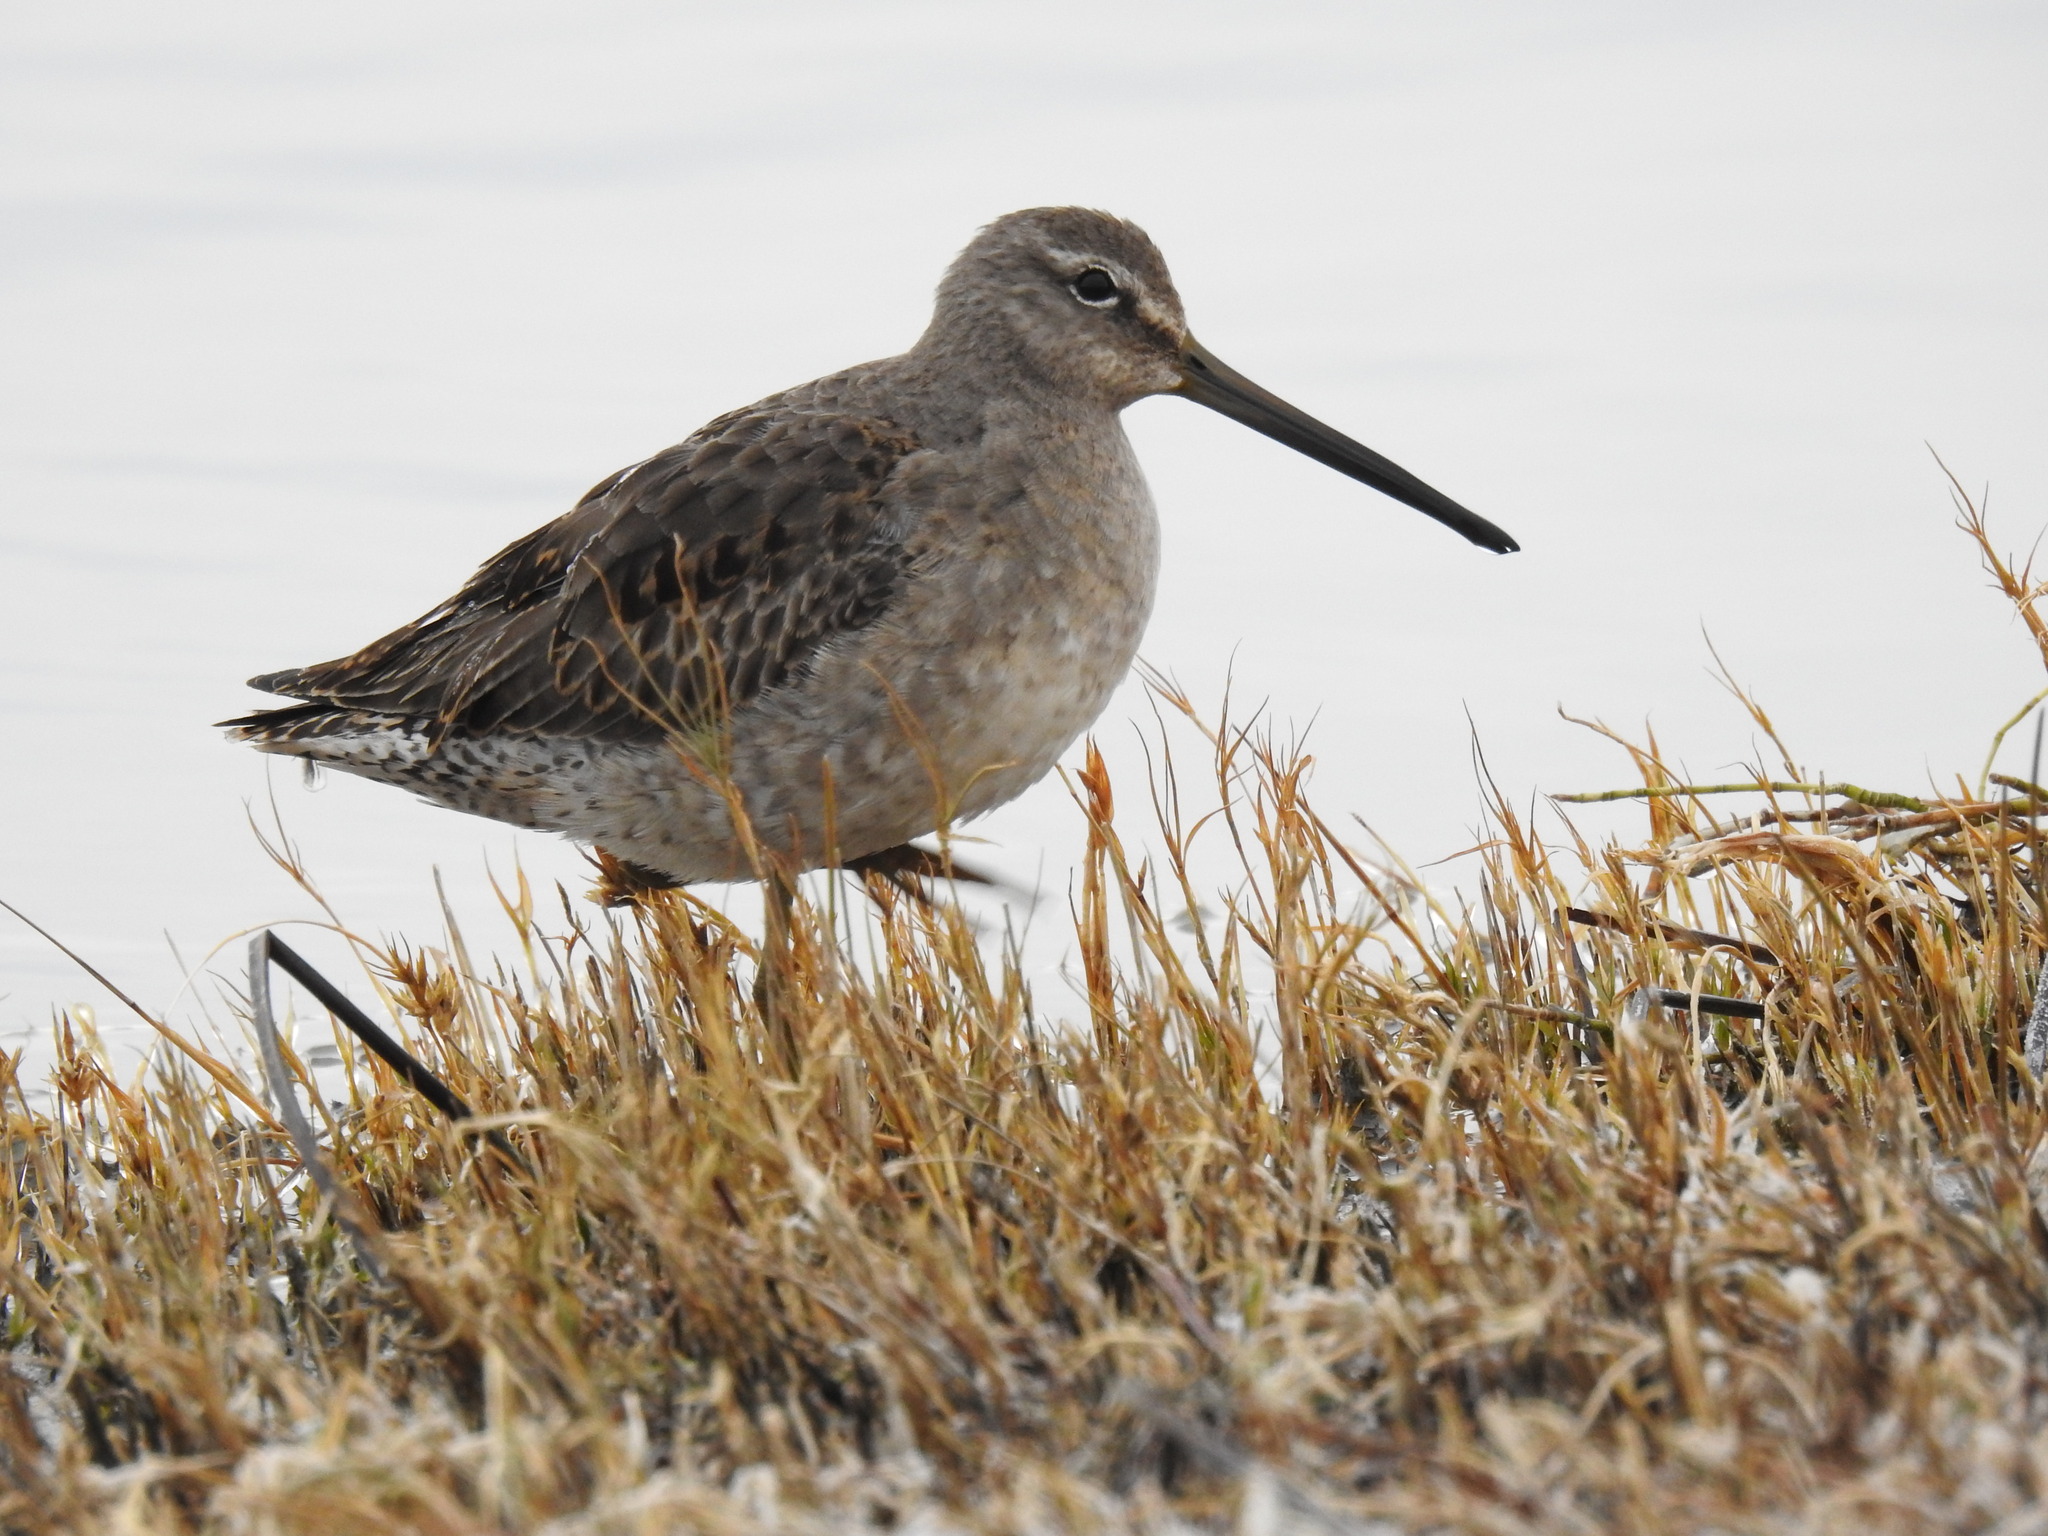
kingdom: Animalia
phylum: Chordata
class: Aves
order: Charadriiformes
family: Scolopacidae
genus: Limnodromus
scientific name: Limnodromus scolopaceus
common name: Long-billed dowitcher
